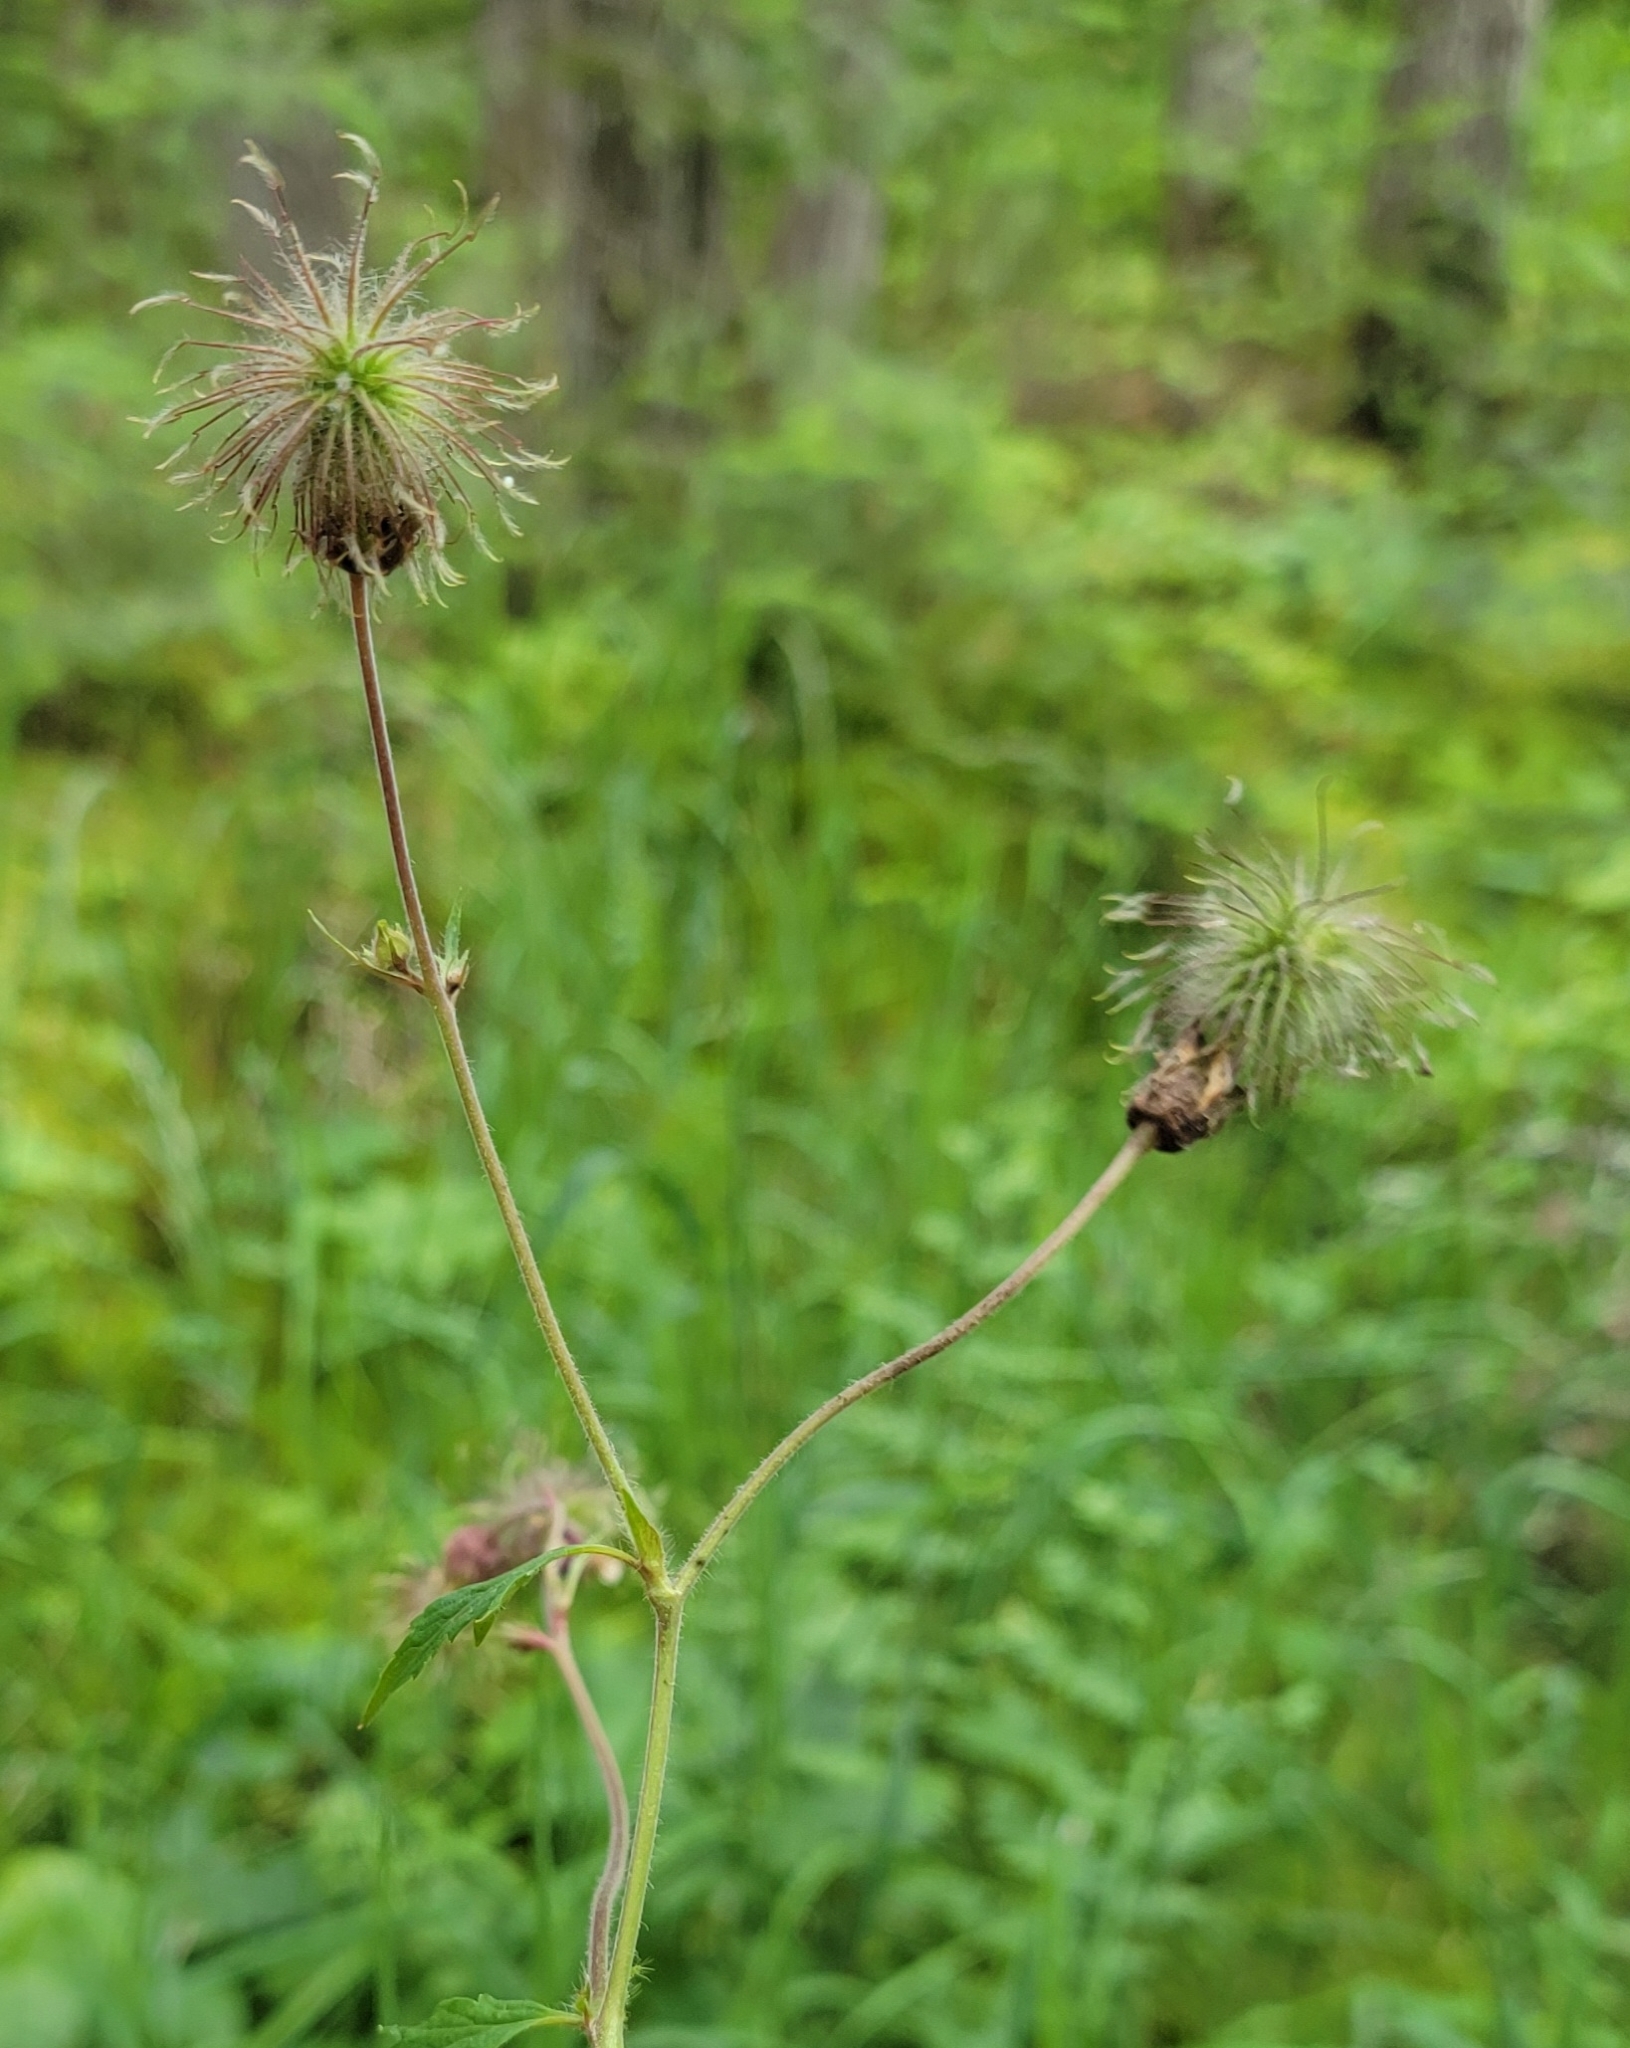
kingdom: Plantae
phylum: Tracheophyta
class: Magnoliopsida
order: Rosales
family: Rosaceae
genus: Geum
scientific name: Geum rivale
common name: Water avens
